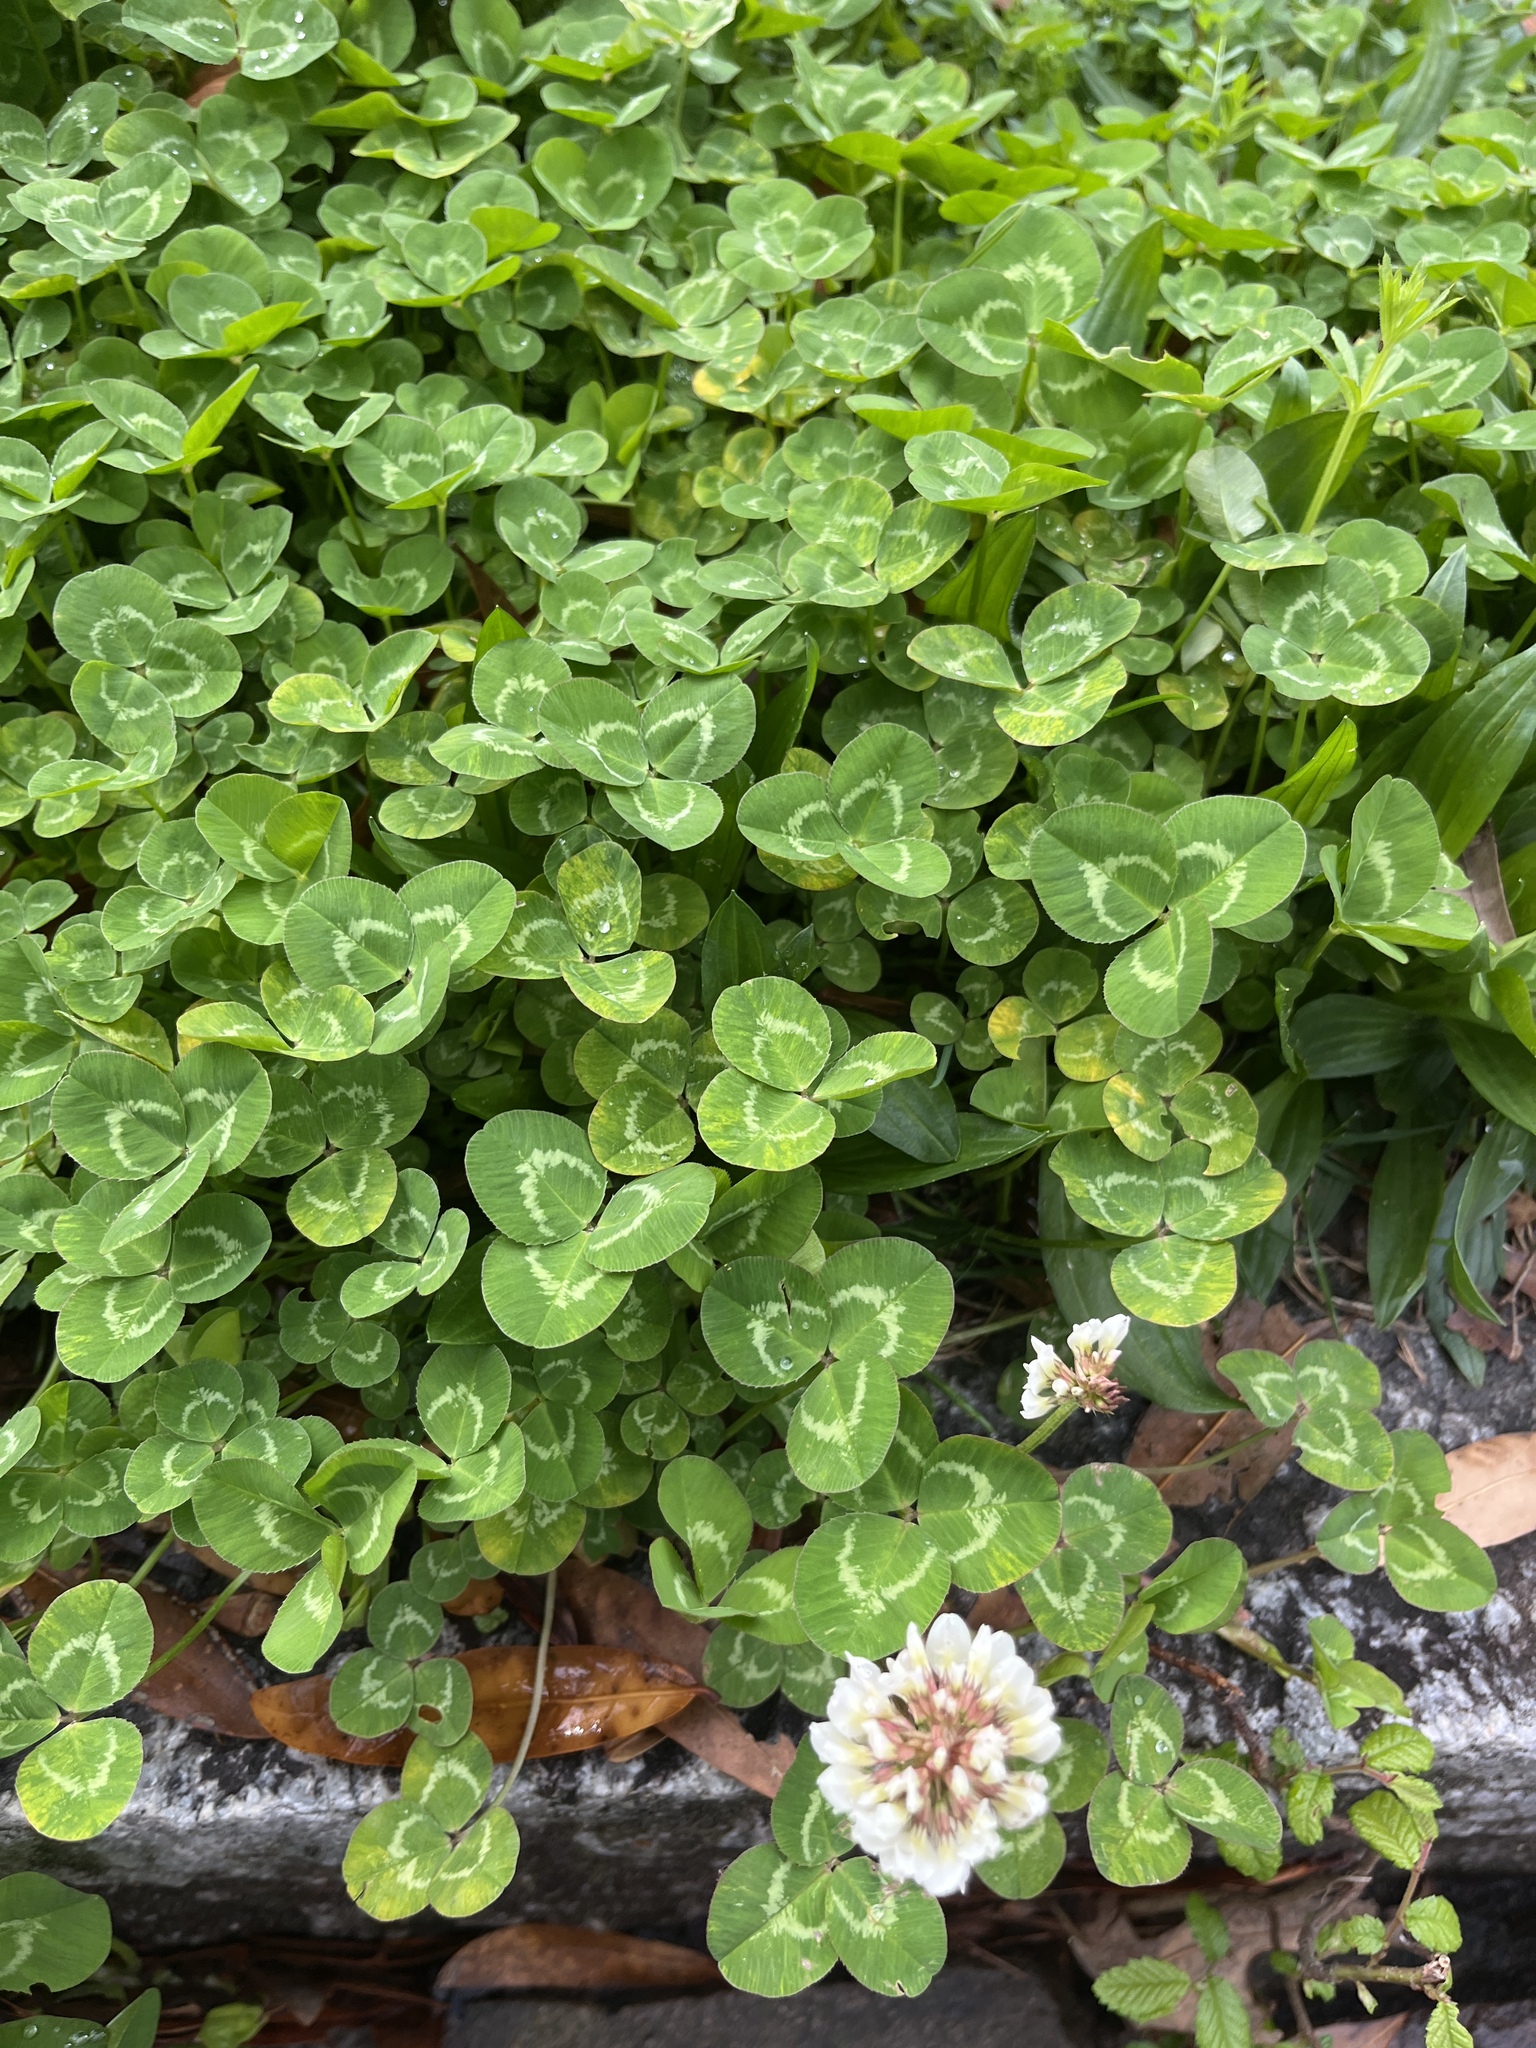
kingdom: Plantae
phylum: Tracheophyta
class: Magnoliopsida
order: Fabales
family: Fabaceae
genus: Trifolium
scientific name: Trifolium repens
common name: White clover
